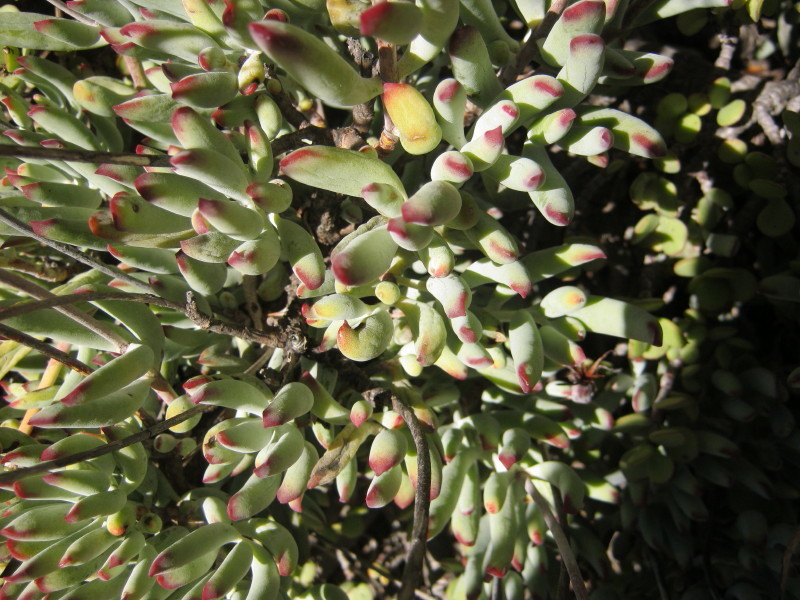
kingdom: Plantae
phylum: Tracheophyta
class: Magnoliopsida
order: Saxifragales
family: Crassulaceae
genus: Cotyledon
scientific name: Cotyledon orbiculata
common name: Pig's ear
